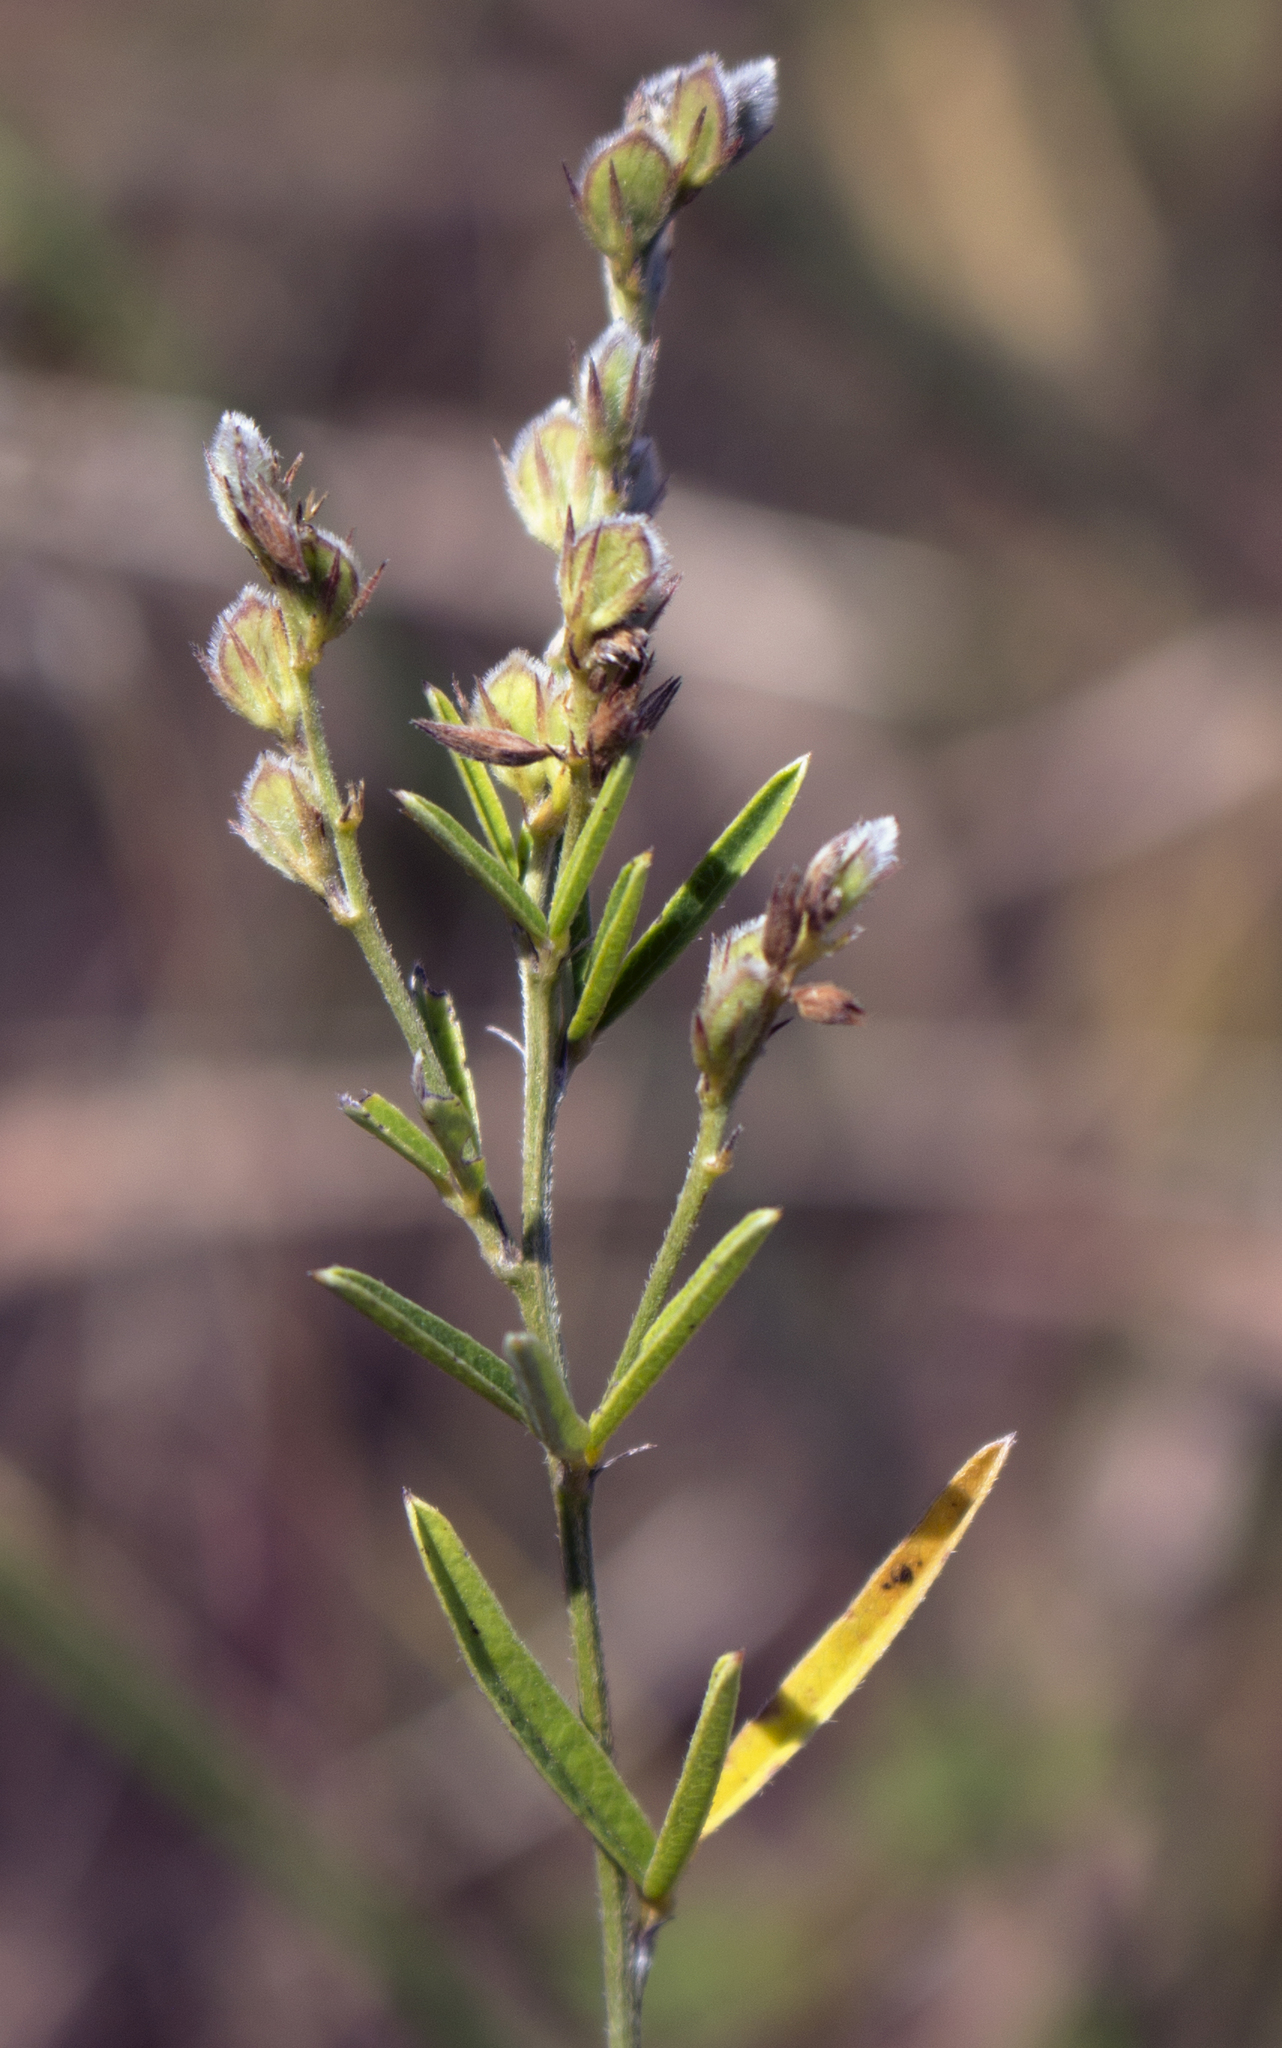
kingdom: Plantae
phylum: Tracheophyta
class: Magnoliopsida
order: Fabales
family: Fabaceae
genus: Lespedeza
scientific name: Lespedeza leptostachya
